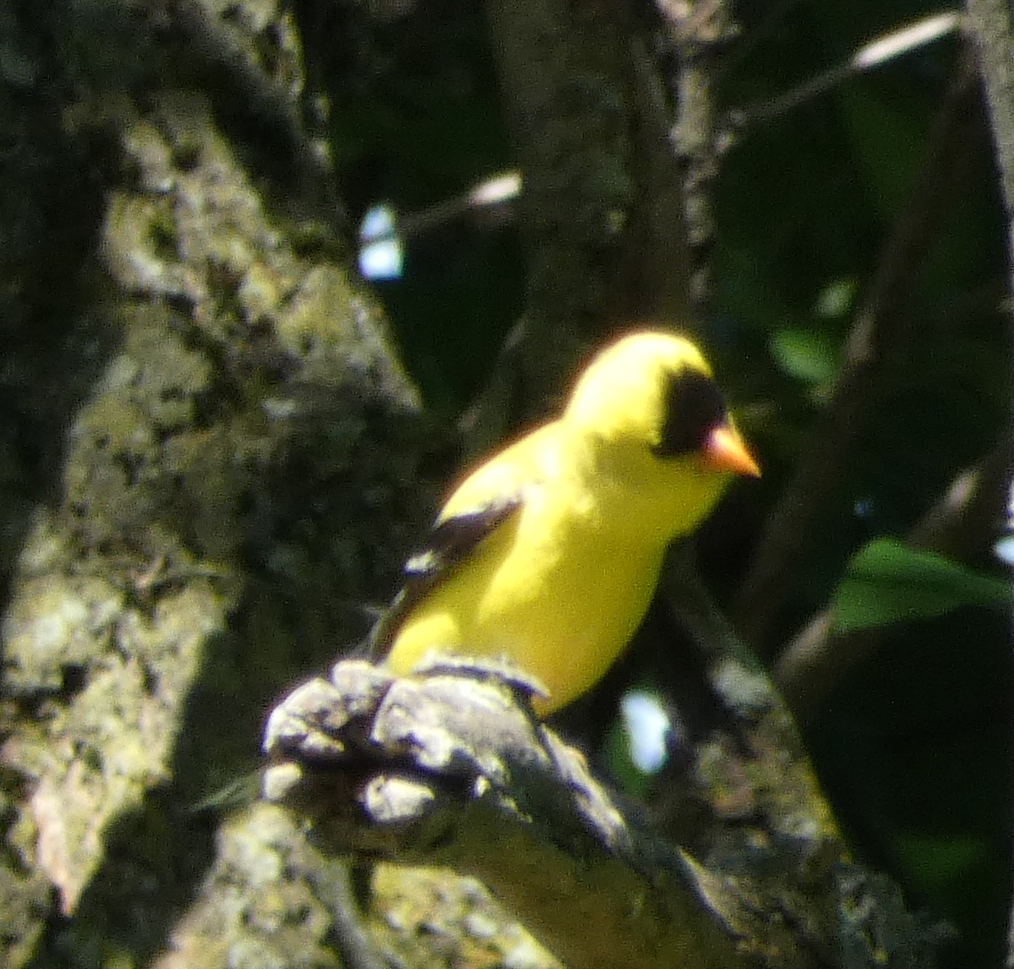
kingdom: Animalia
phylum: Chordata
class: Aves
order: Passeriformes
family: Fringillidae
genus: Spinus
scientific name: Spinus tristis
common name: American goldfinch
